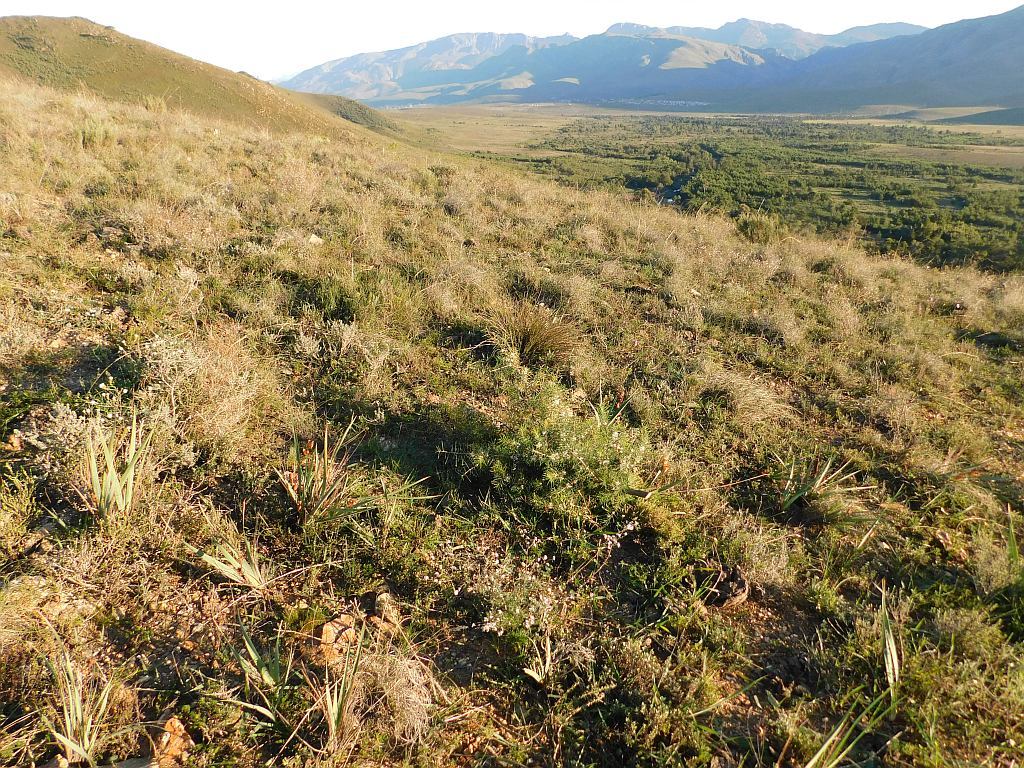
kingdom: Plantae
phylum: Tracheophyta
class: Magnoliopsida
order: Proteales
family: Proteaceae
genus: Hakea
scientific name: Hakea sericea
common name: Needle bush
